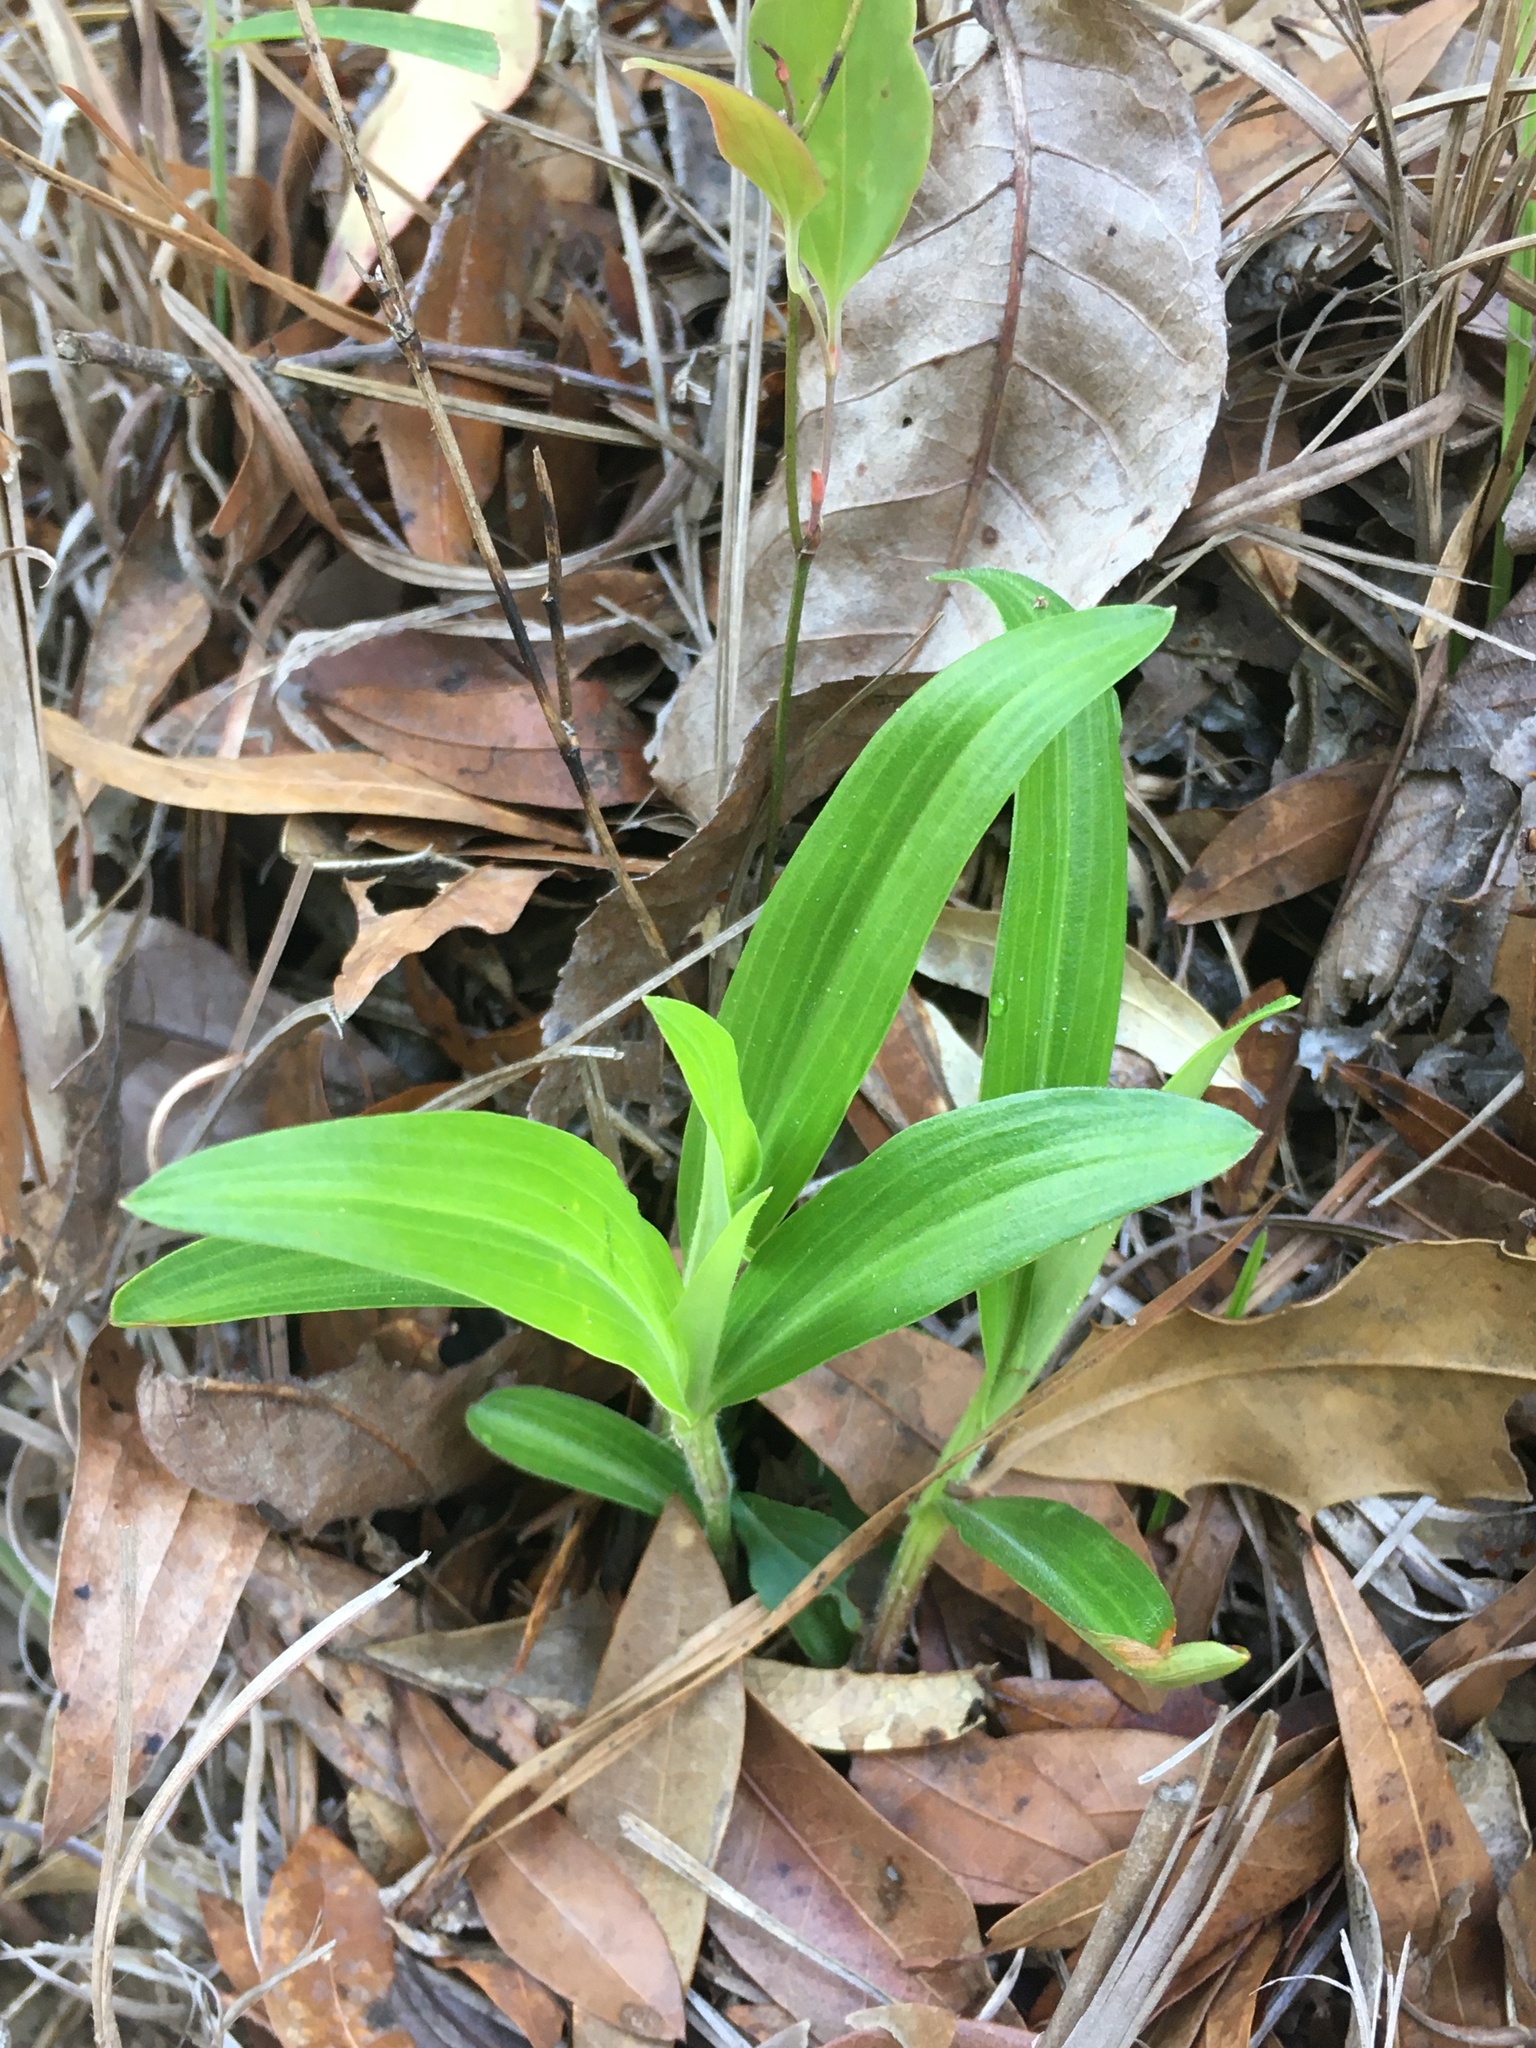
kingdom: Plantae
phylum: Tracheophyta
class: Liliopsida
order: Commelinales
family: Commelinaceae
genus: Commelina
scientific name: Commelina erecta
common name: Blousel blommetjie
